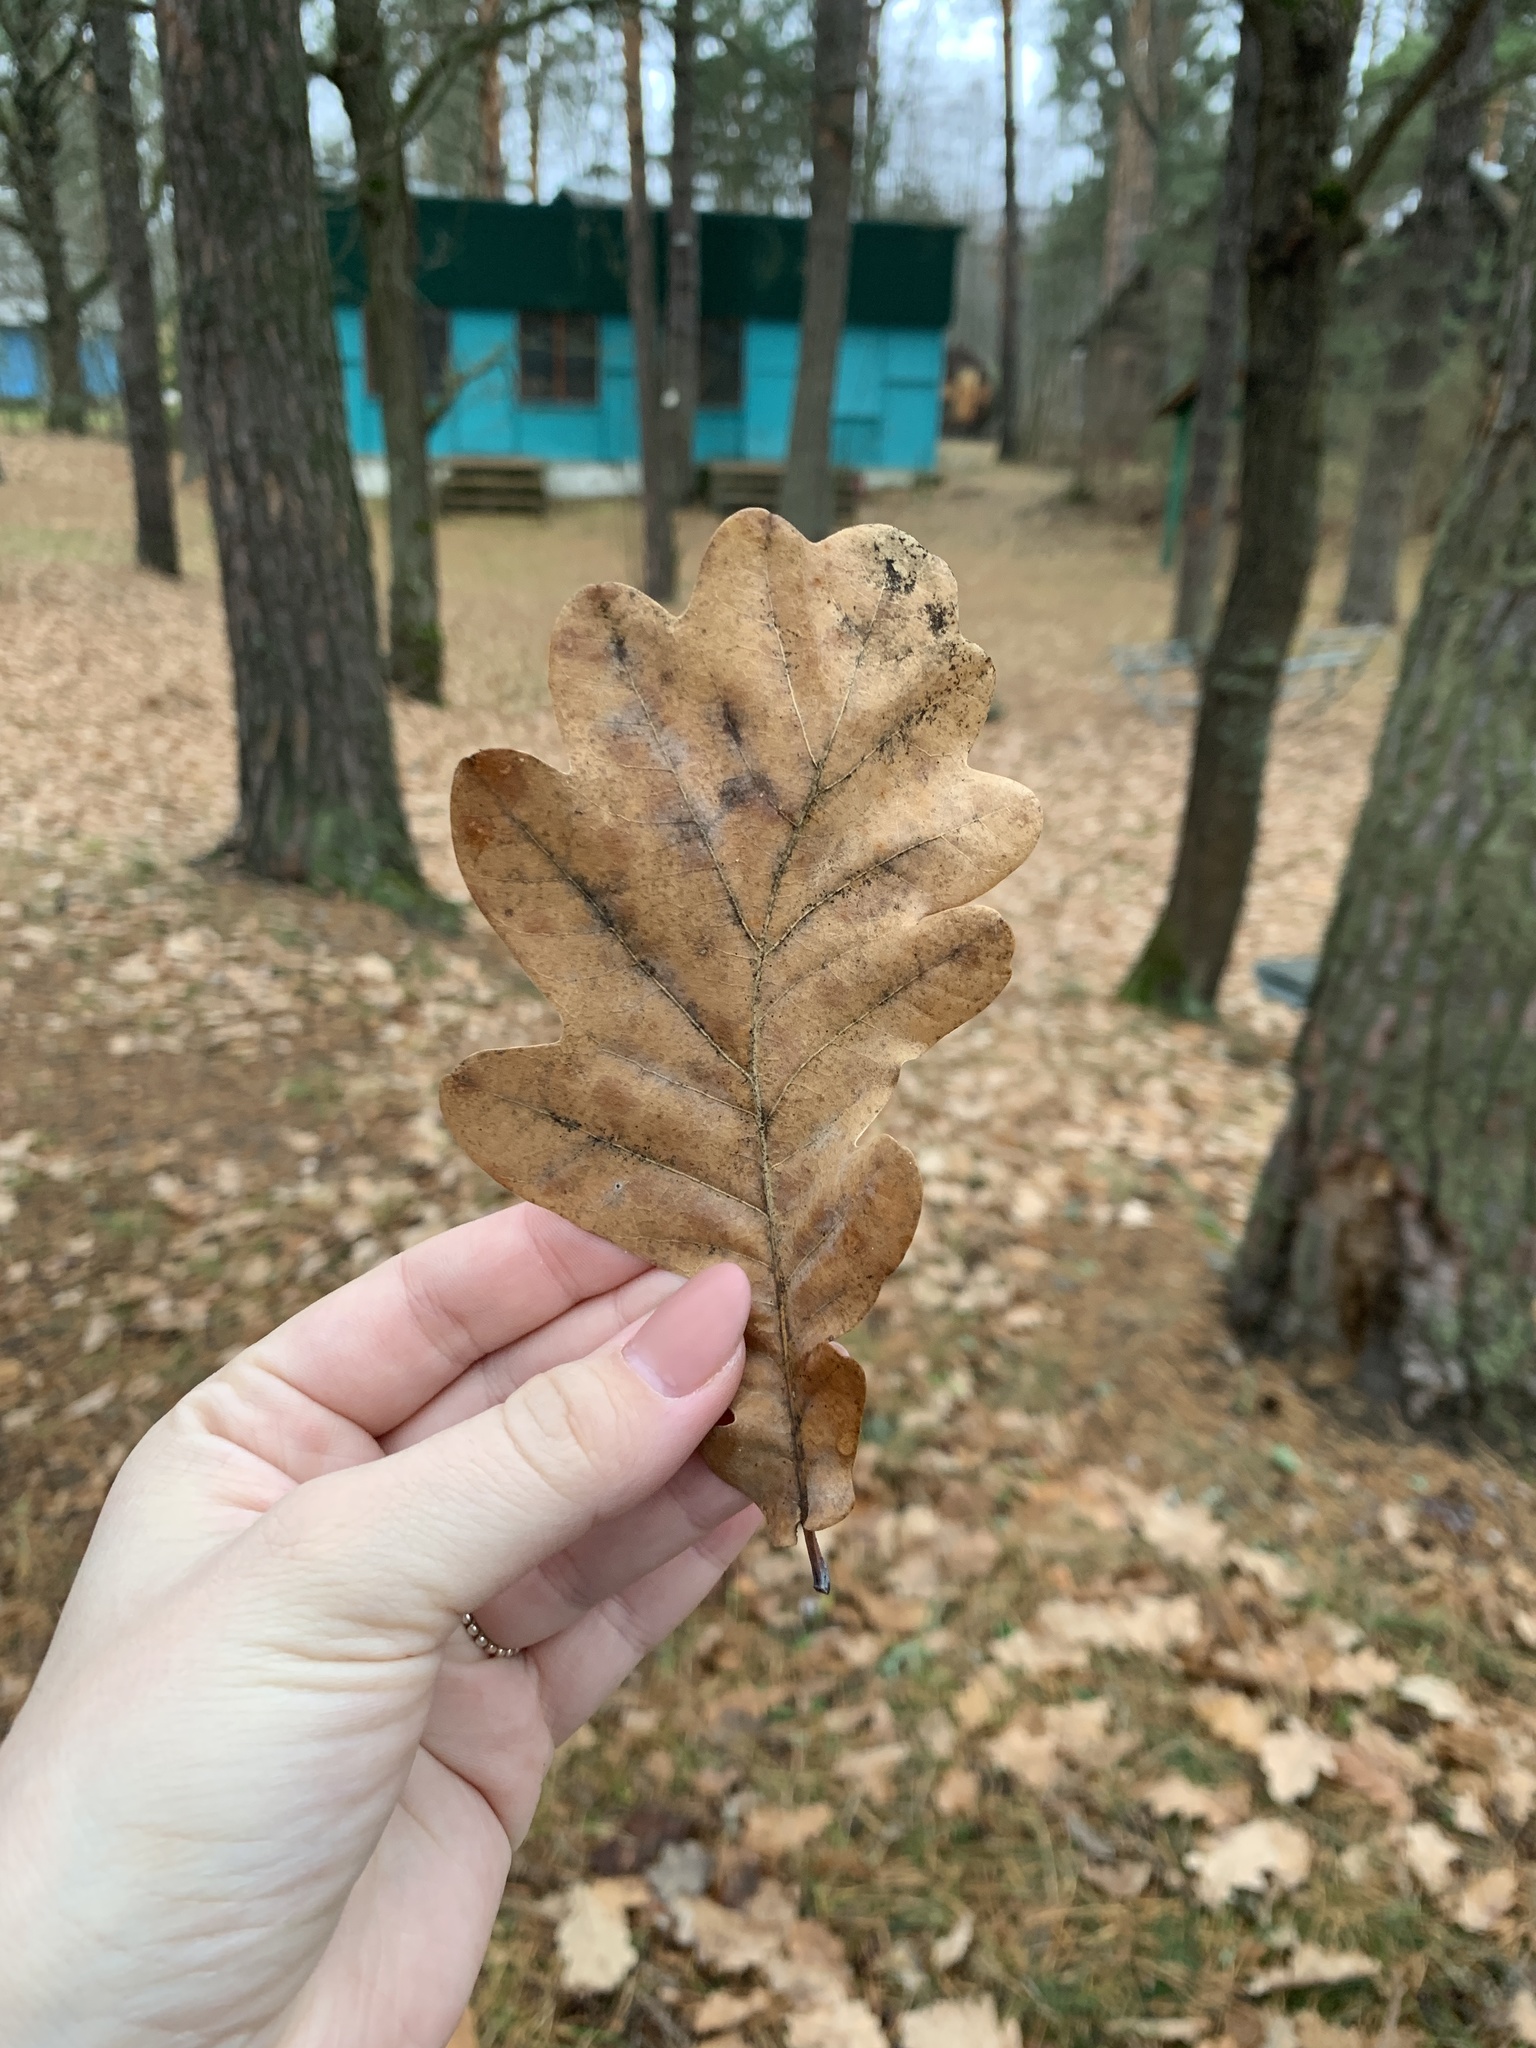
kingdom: Plantae
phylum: Tracheophyta
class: Magnoliopsida
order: Fagales
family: Fagaceae
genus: Quercus
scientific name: Quercus robur
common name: Pedunculate oak
